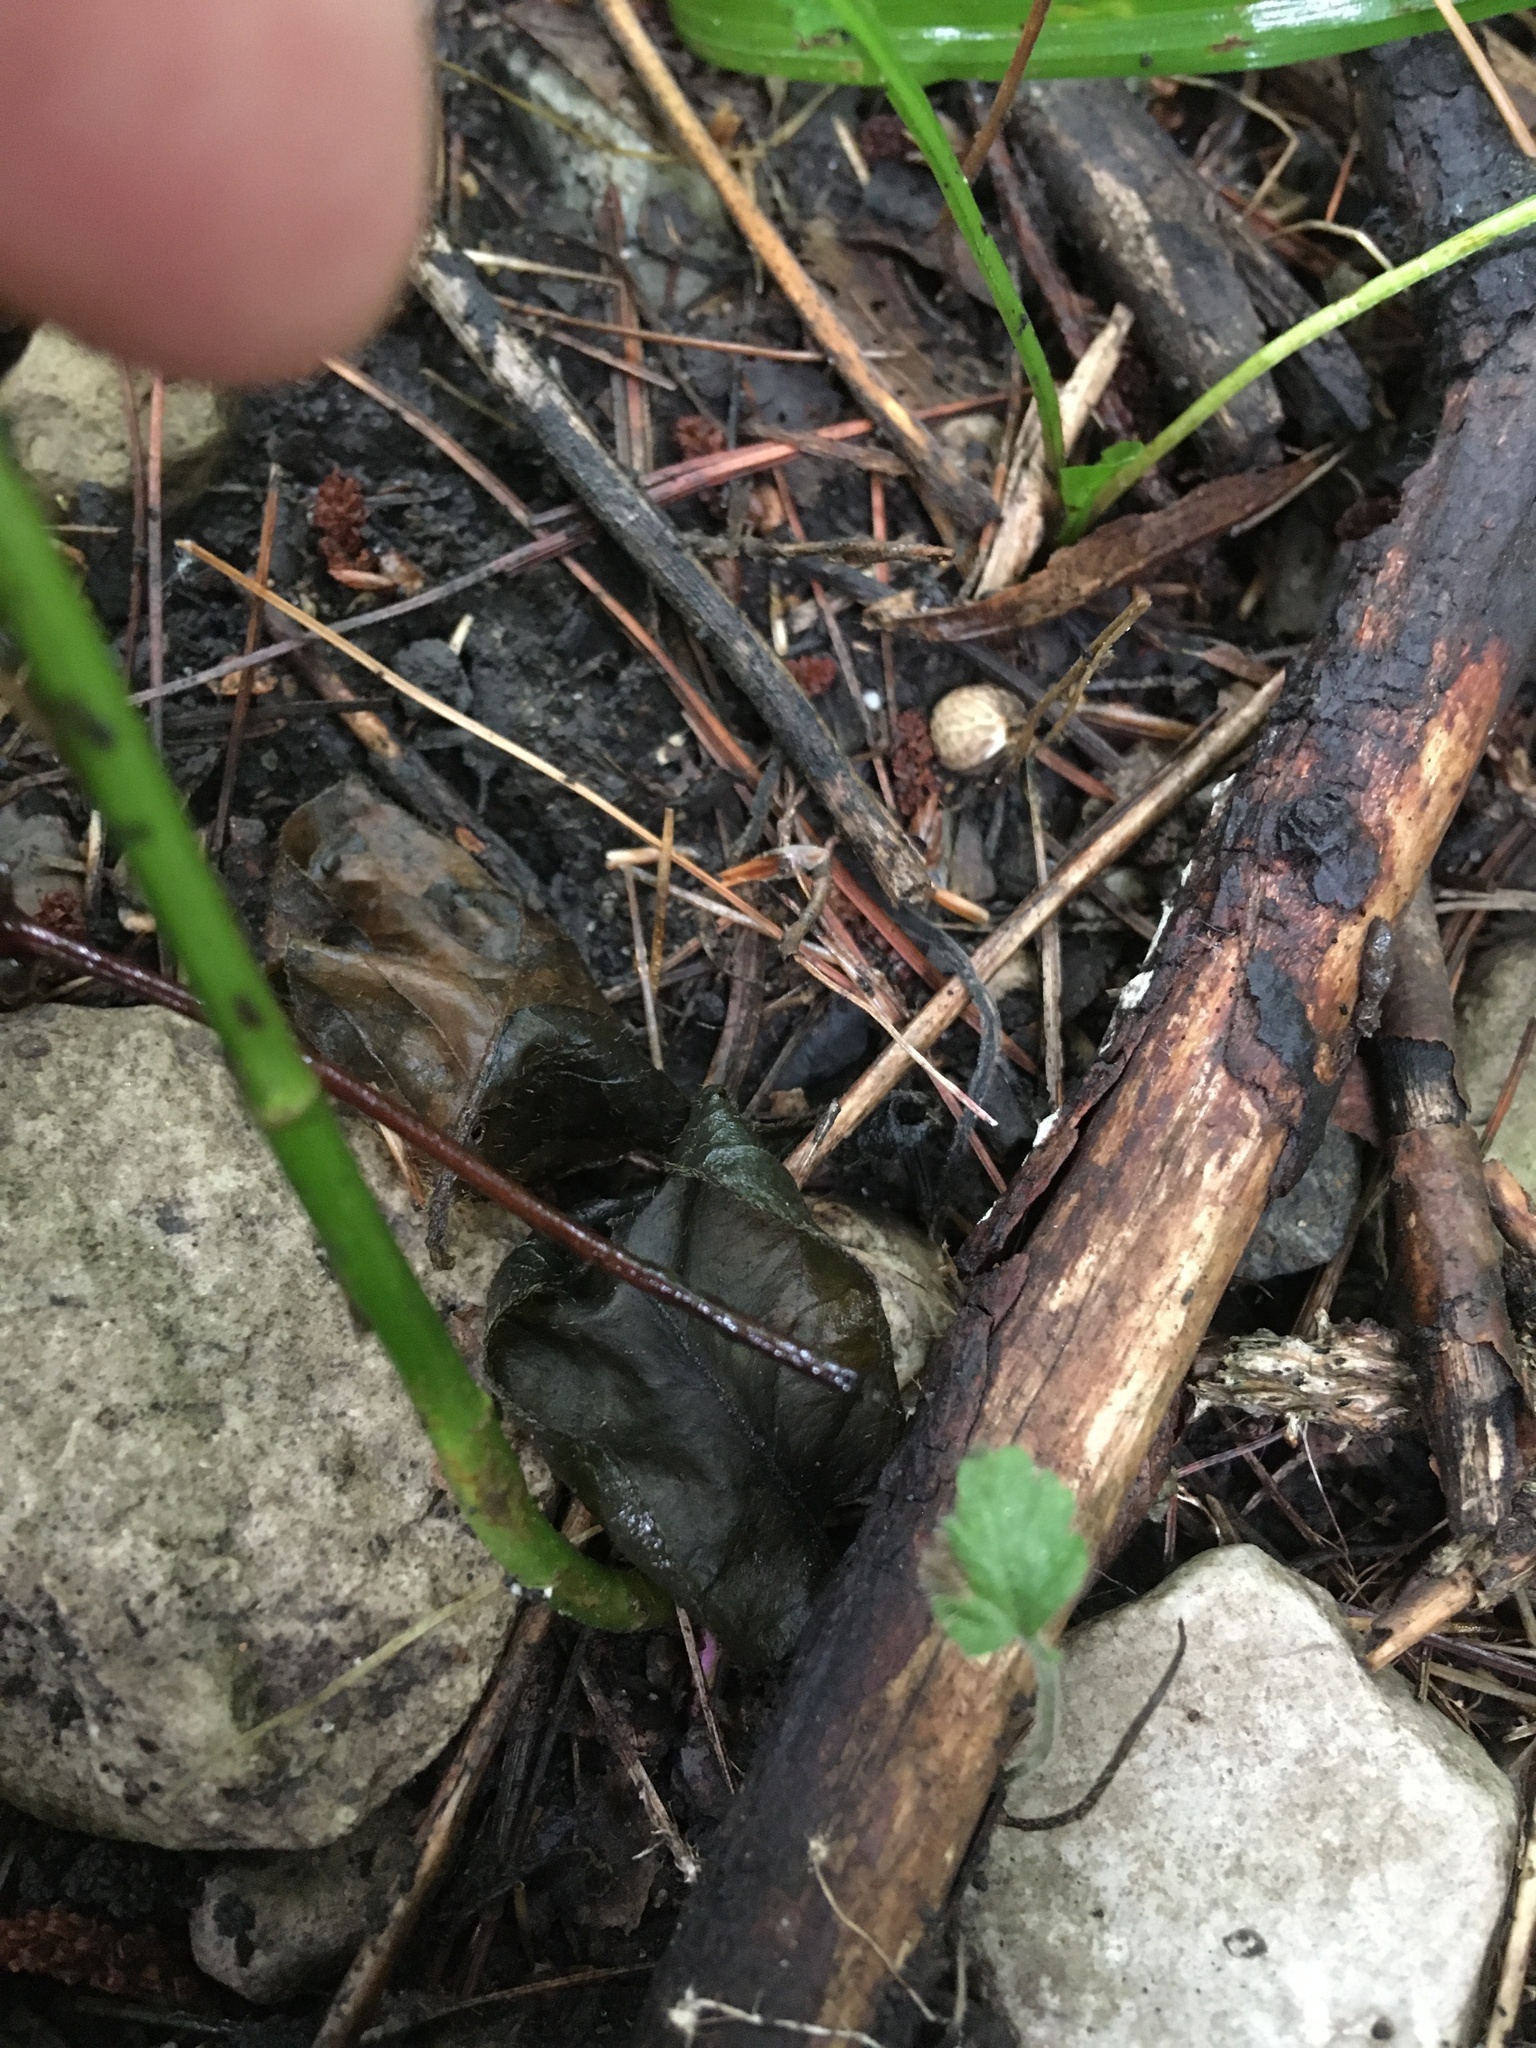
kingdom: Plantae
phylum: Tracheophyta
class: Magnoliopsida
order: Vitales
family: Vitaceae
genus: Parthenocissus
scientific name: Parthenocissus quinquefolia
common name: Virginia-creeper
